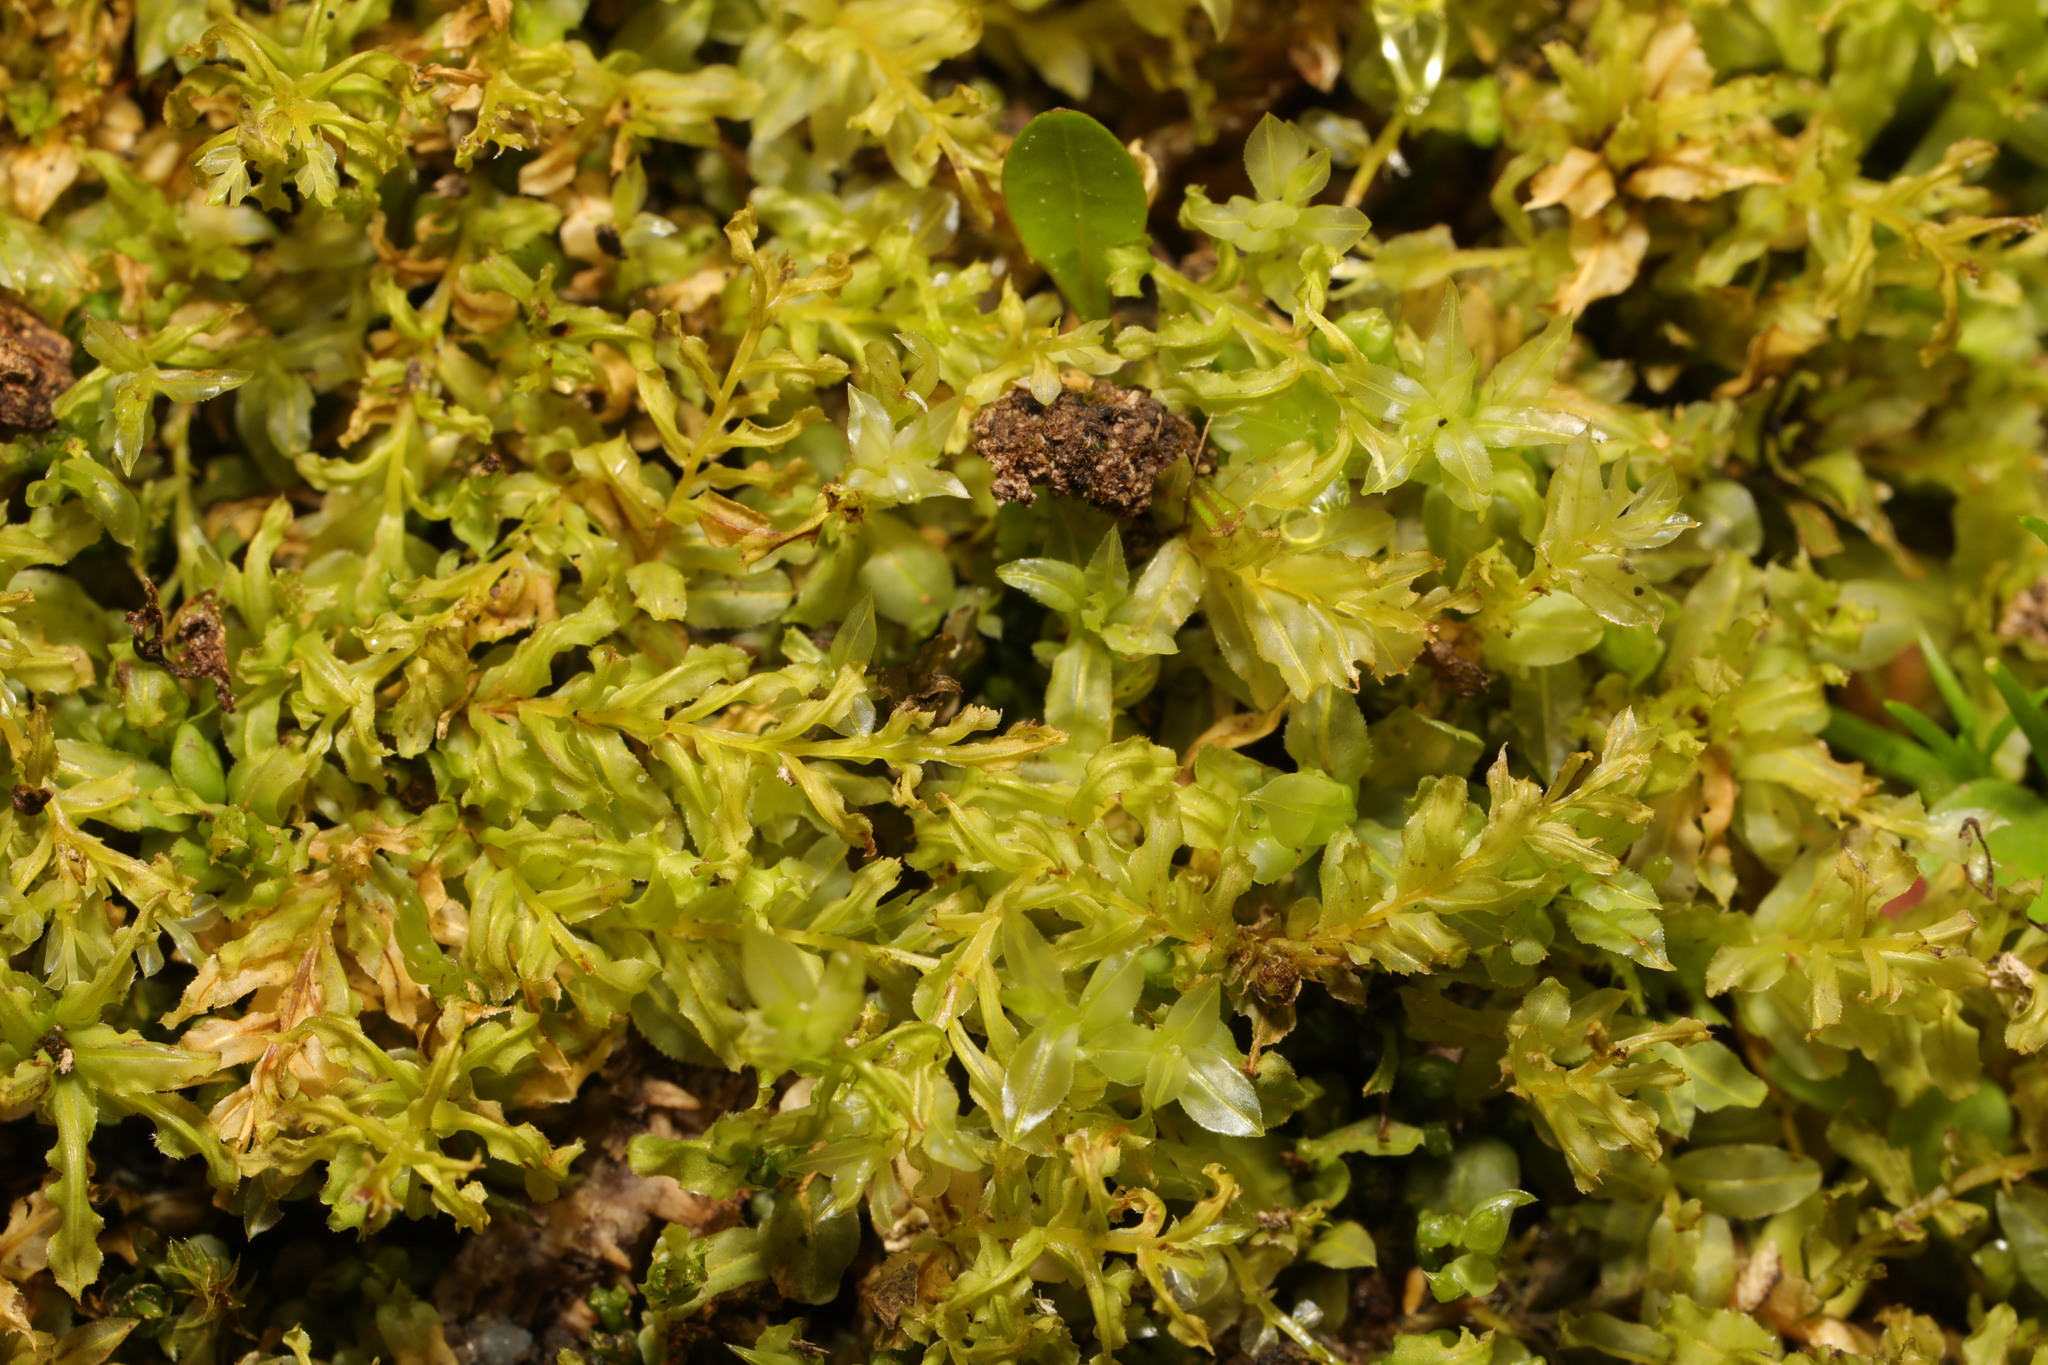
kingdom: Plantae
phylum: Bryophyta
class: Bryopsida
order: Bryales
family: Mniaceae
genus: Plagiomnium
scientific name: Plagiomnium undulatum
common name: Hart's-tongue thyme-moss
